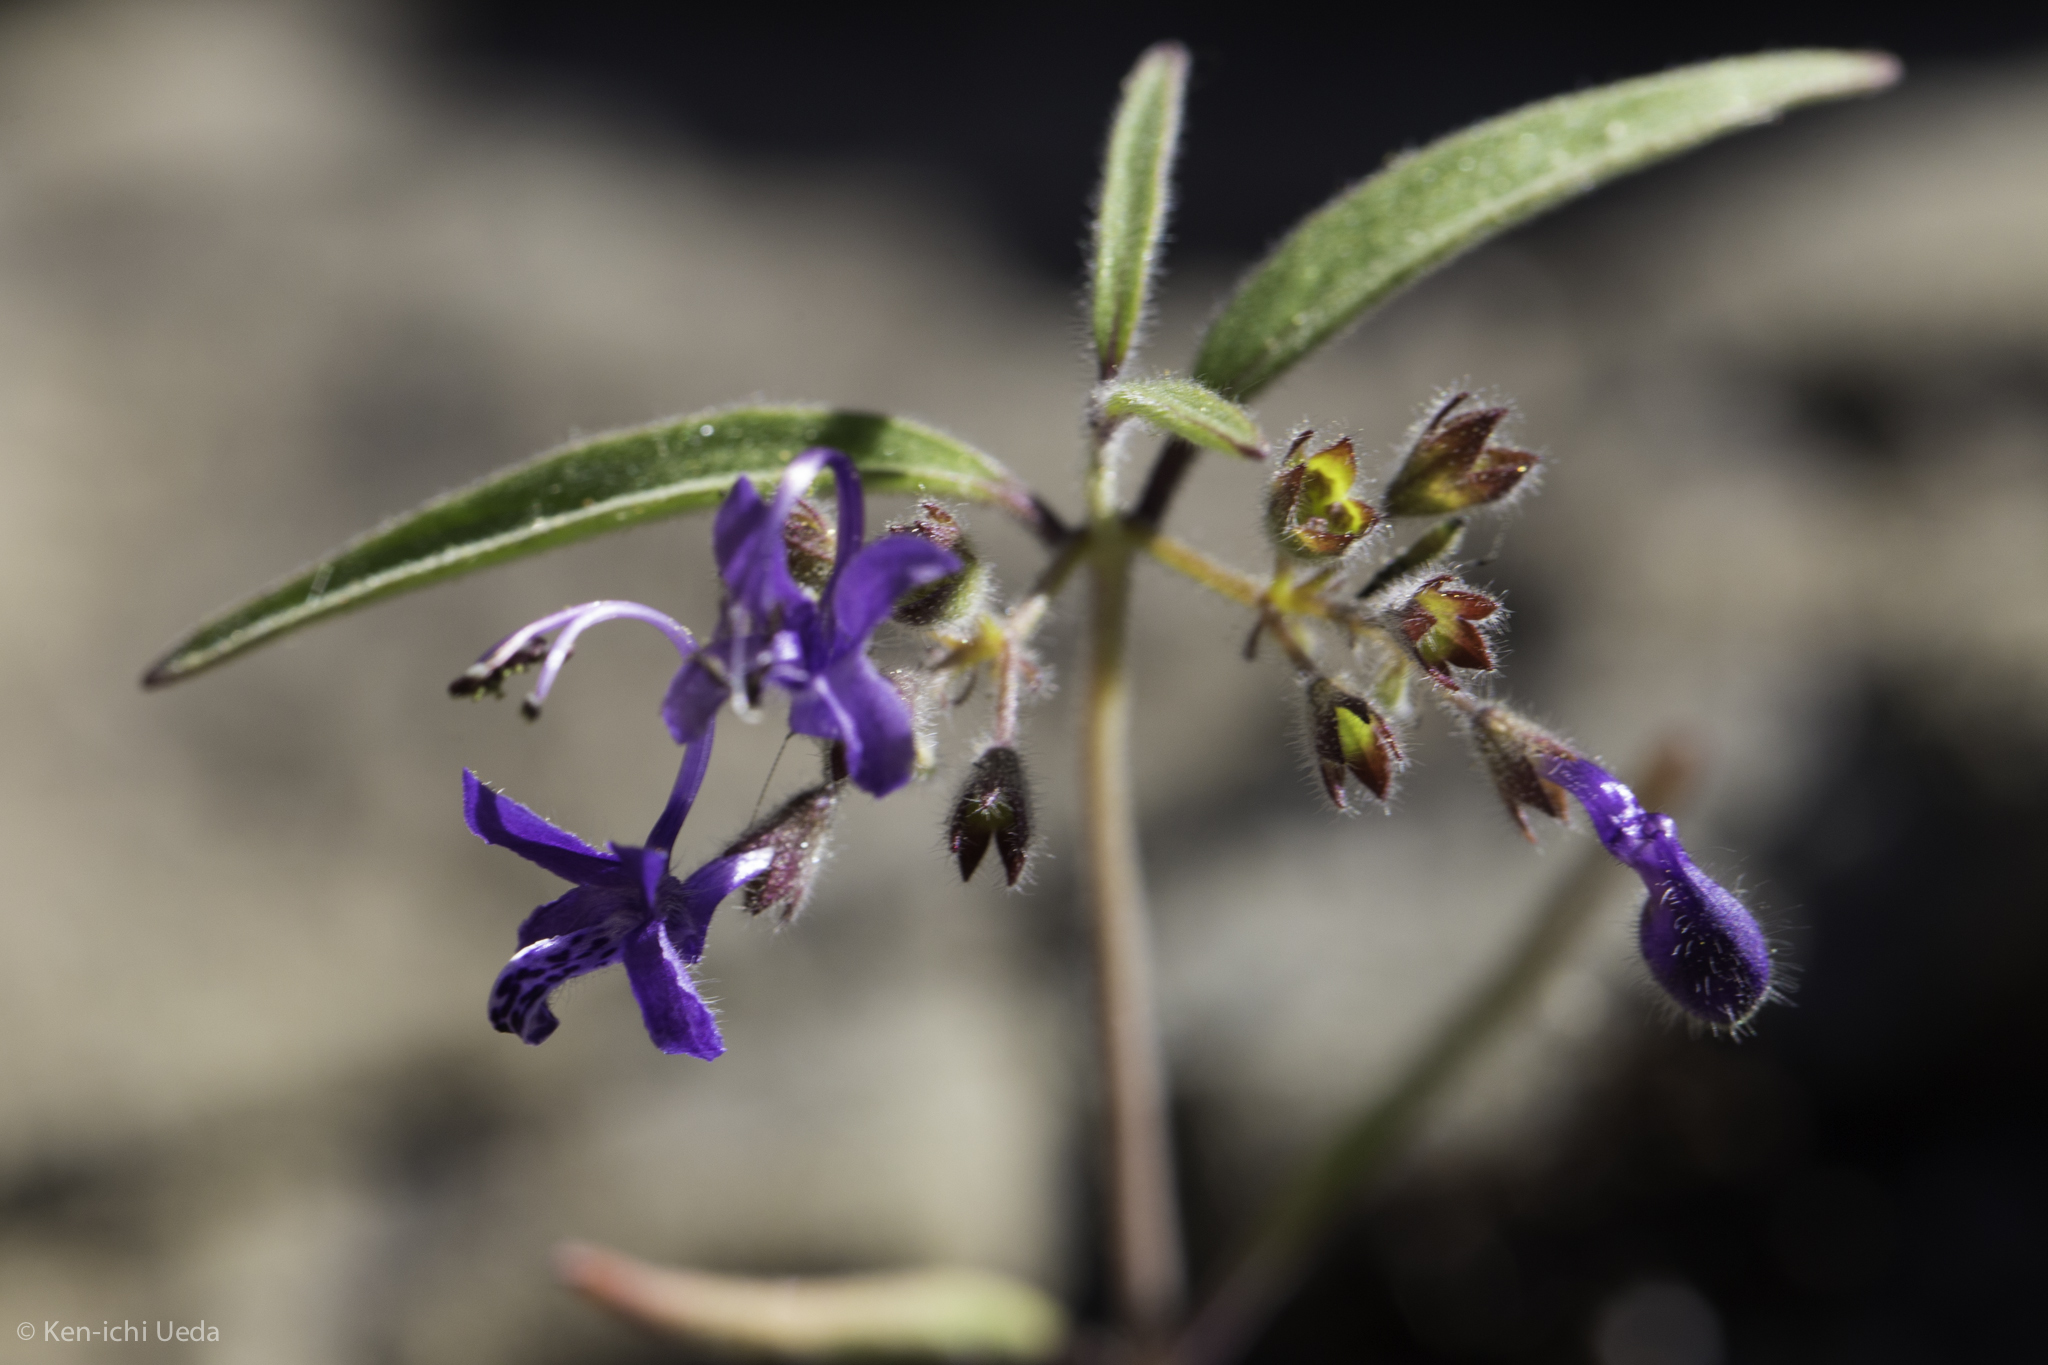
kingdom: Plantae
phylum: Tracheophyta
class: Magnoliopsida
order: Lamiales
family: Lamiaceae
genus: Trichostema
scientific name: Trichostema laxum
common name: Turpentine weed
